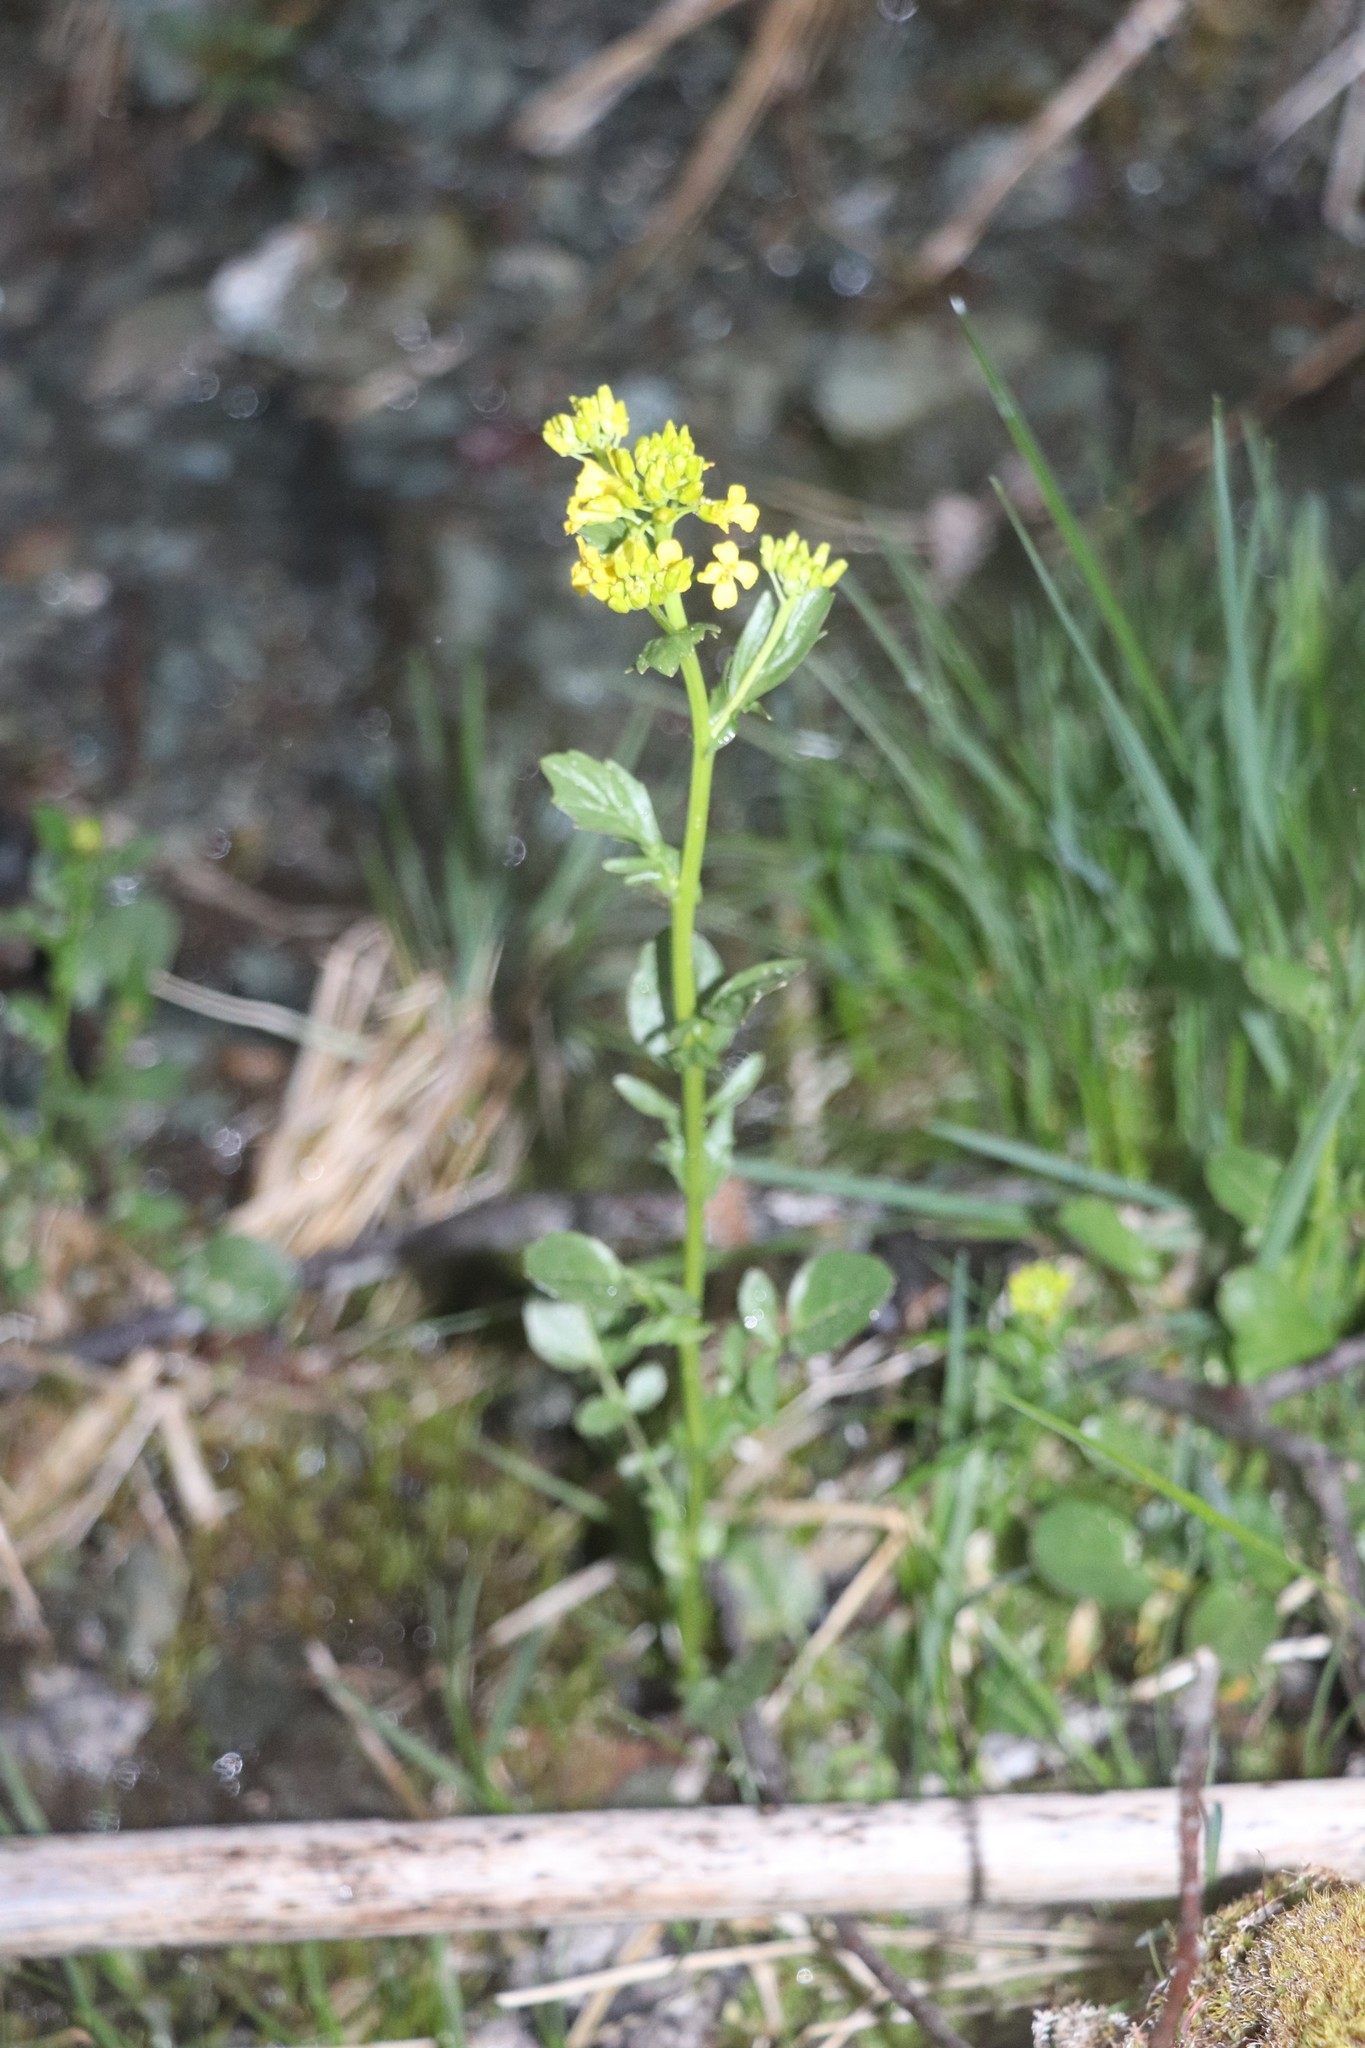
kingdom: Plantae
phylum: Tracheophyta
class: Magnoliopsida
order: Brassicales
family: Brassicaceae
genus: Barbarea
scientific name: Barbarea vulgaris
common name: Cressy-greens
